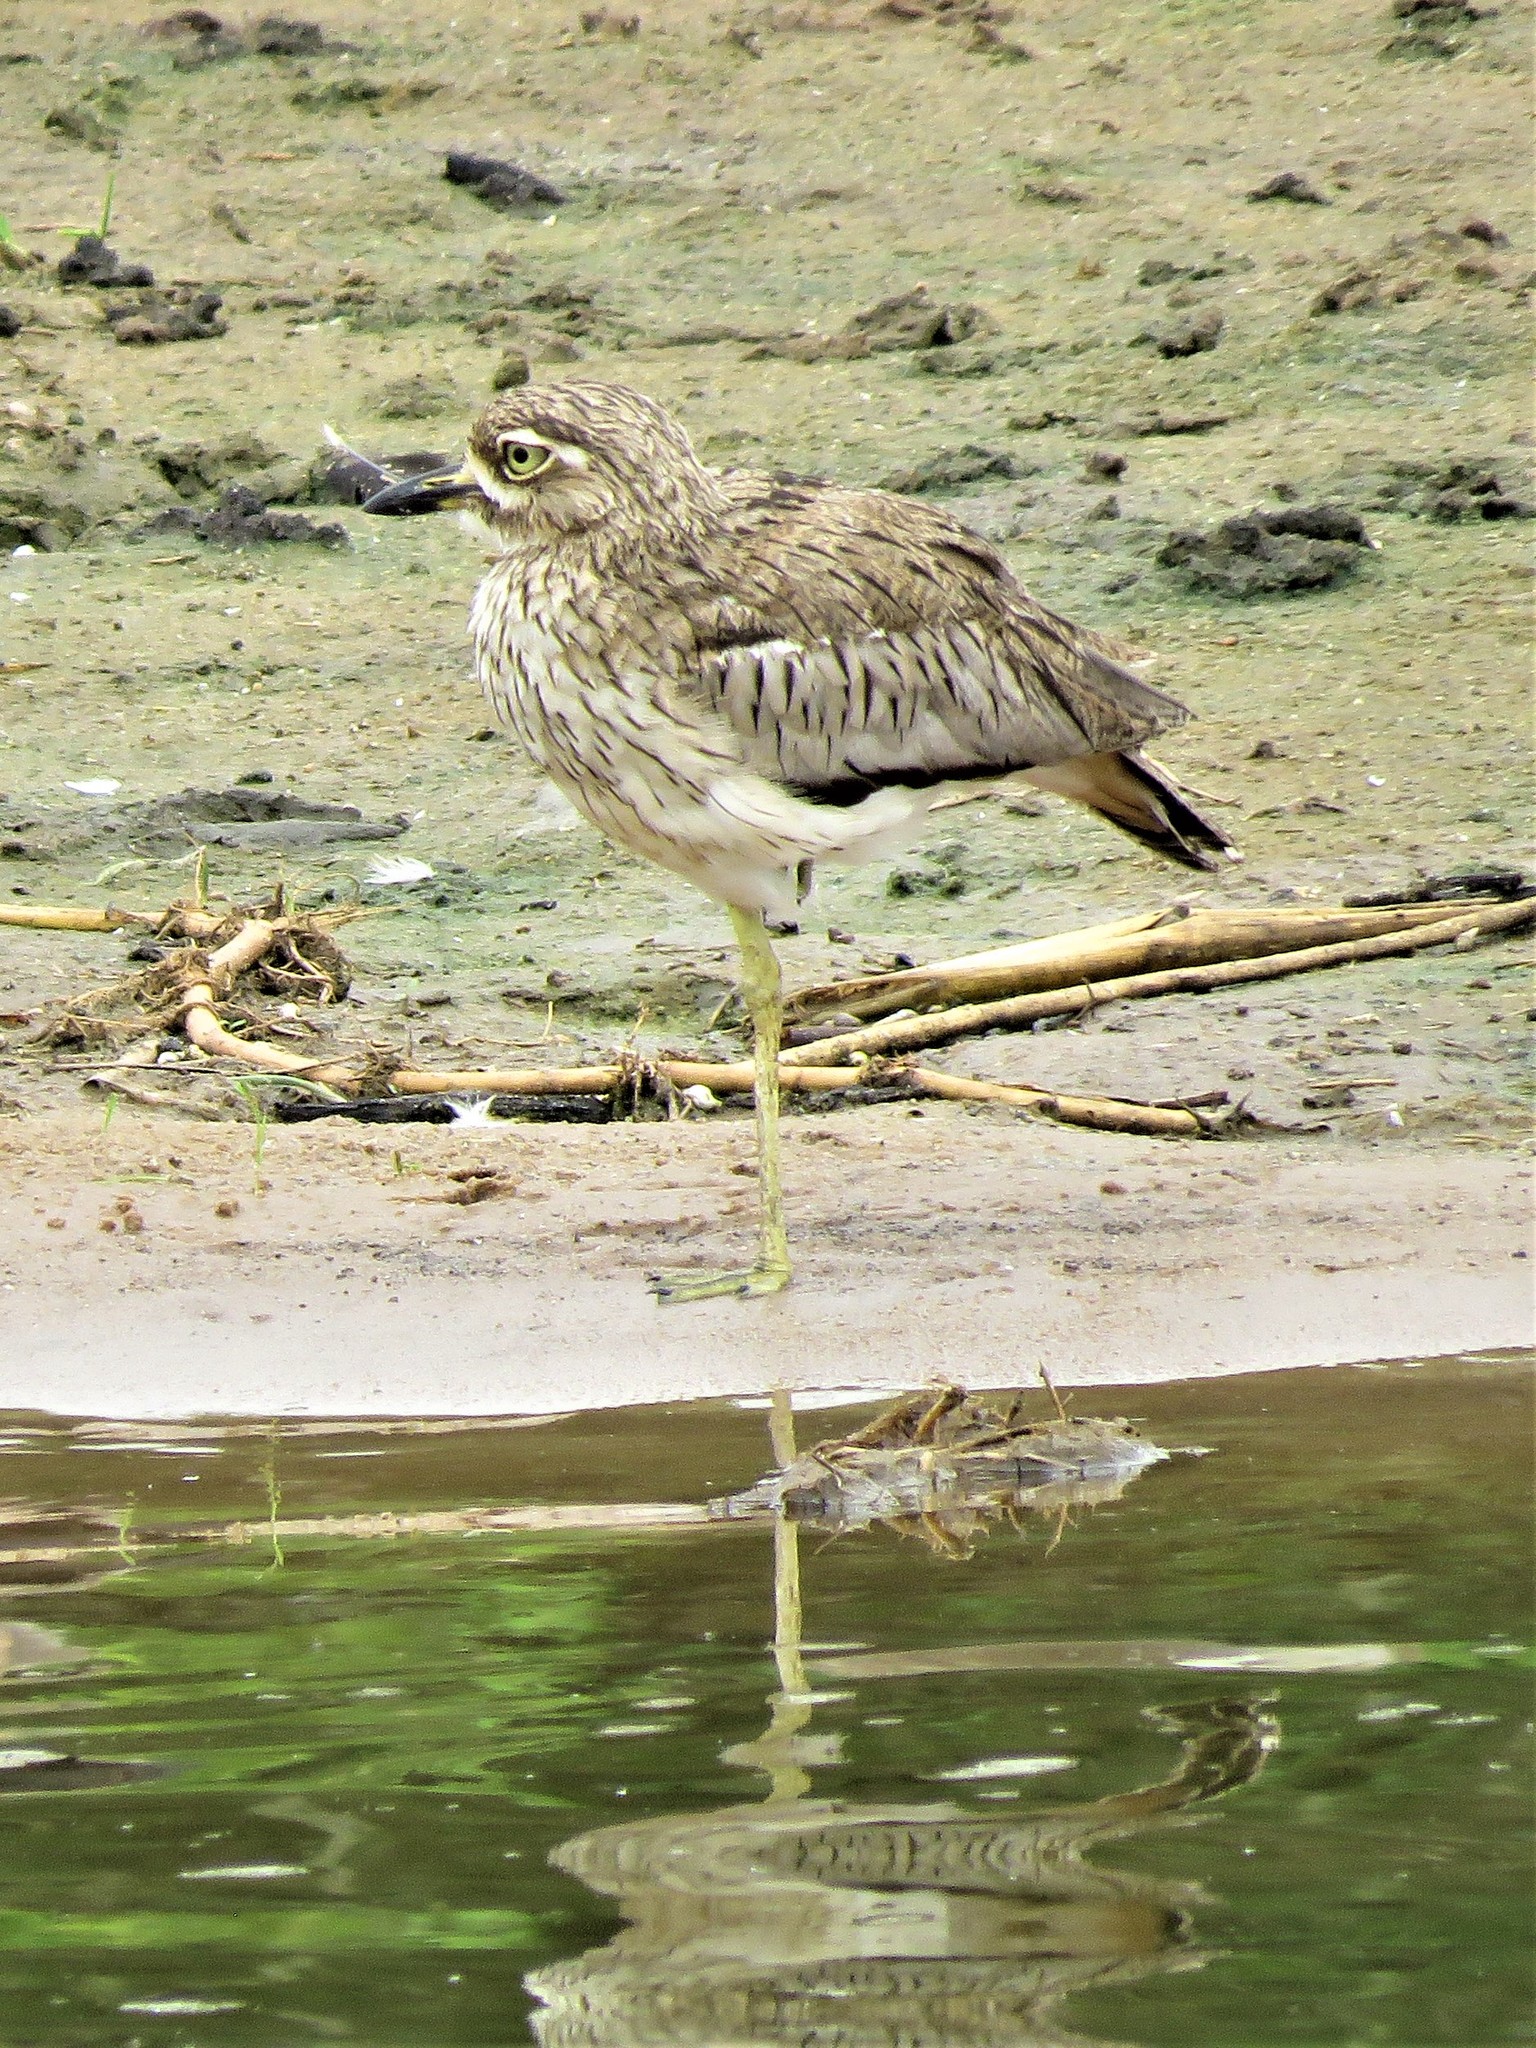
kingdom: Animalia
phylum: Chordata
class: Aves
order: Charadriiformes
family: Burhinidae
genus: Burhinus
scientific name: Burhinus vermiculatus
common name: Water thick-knee
